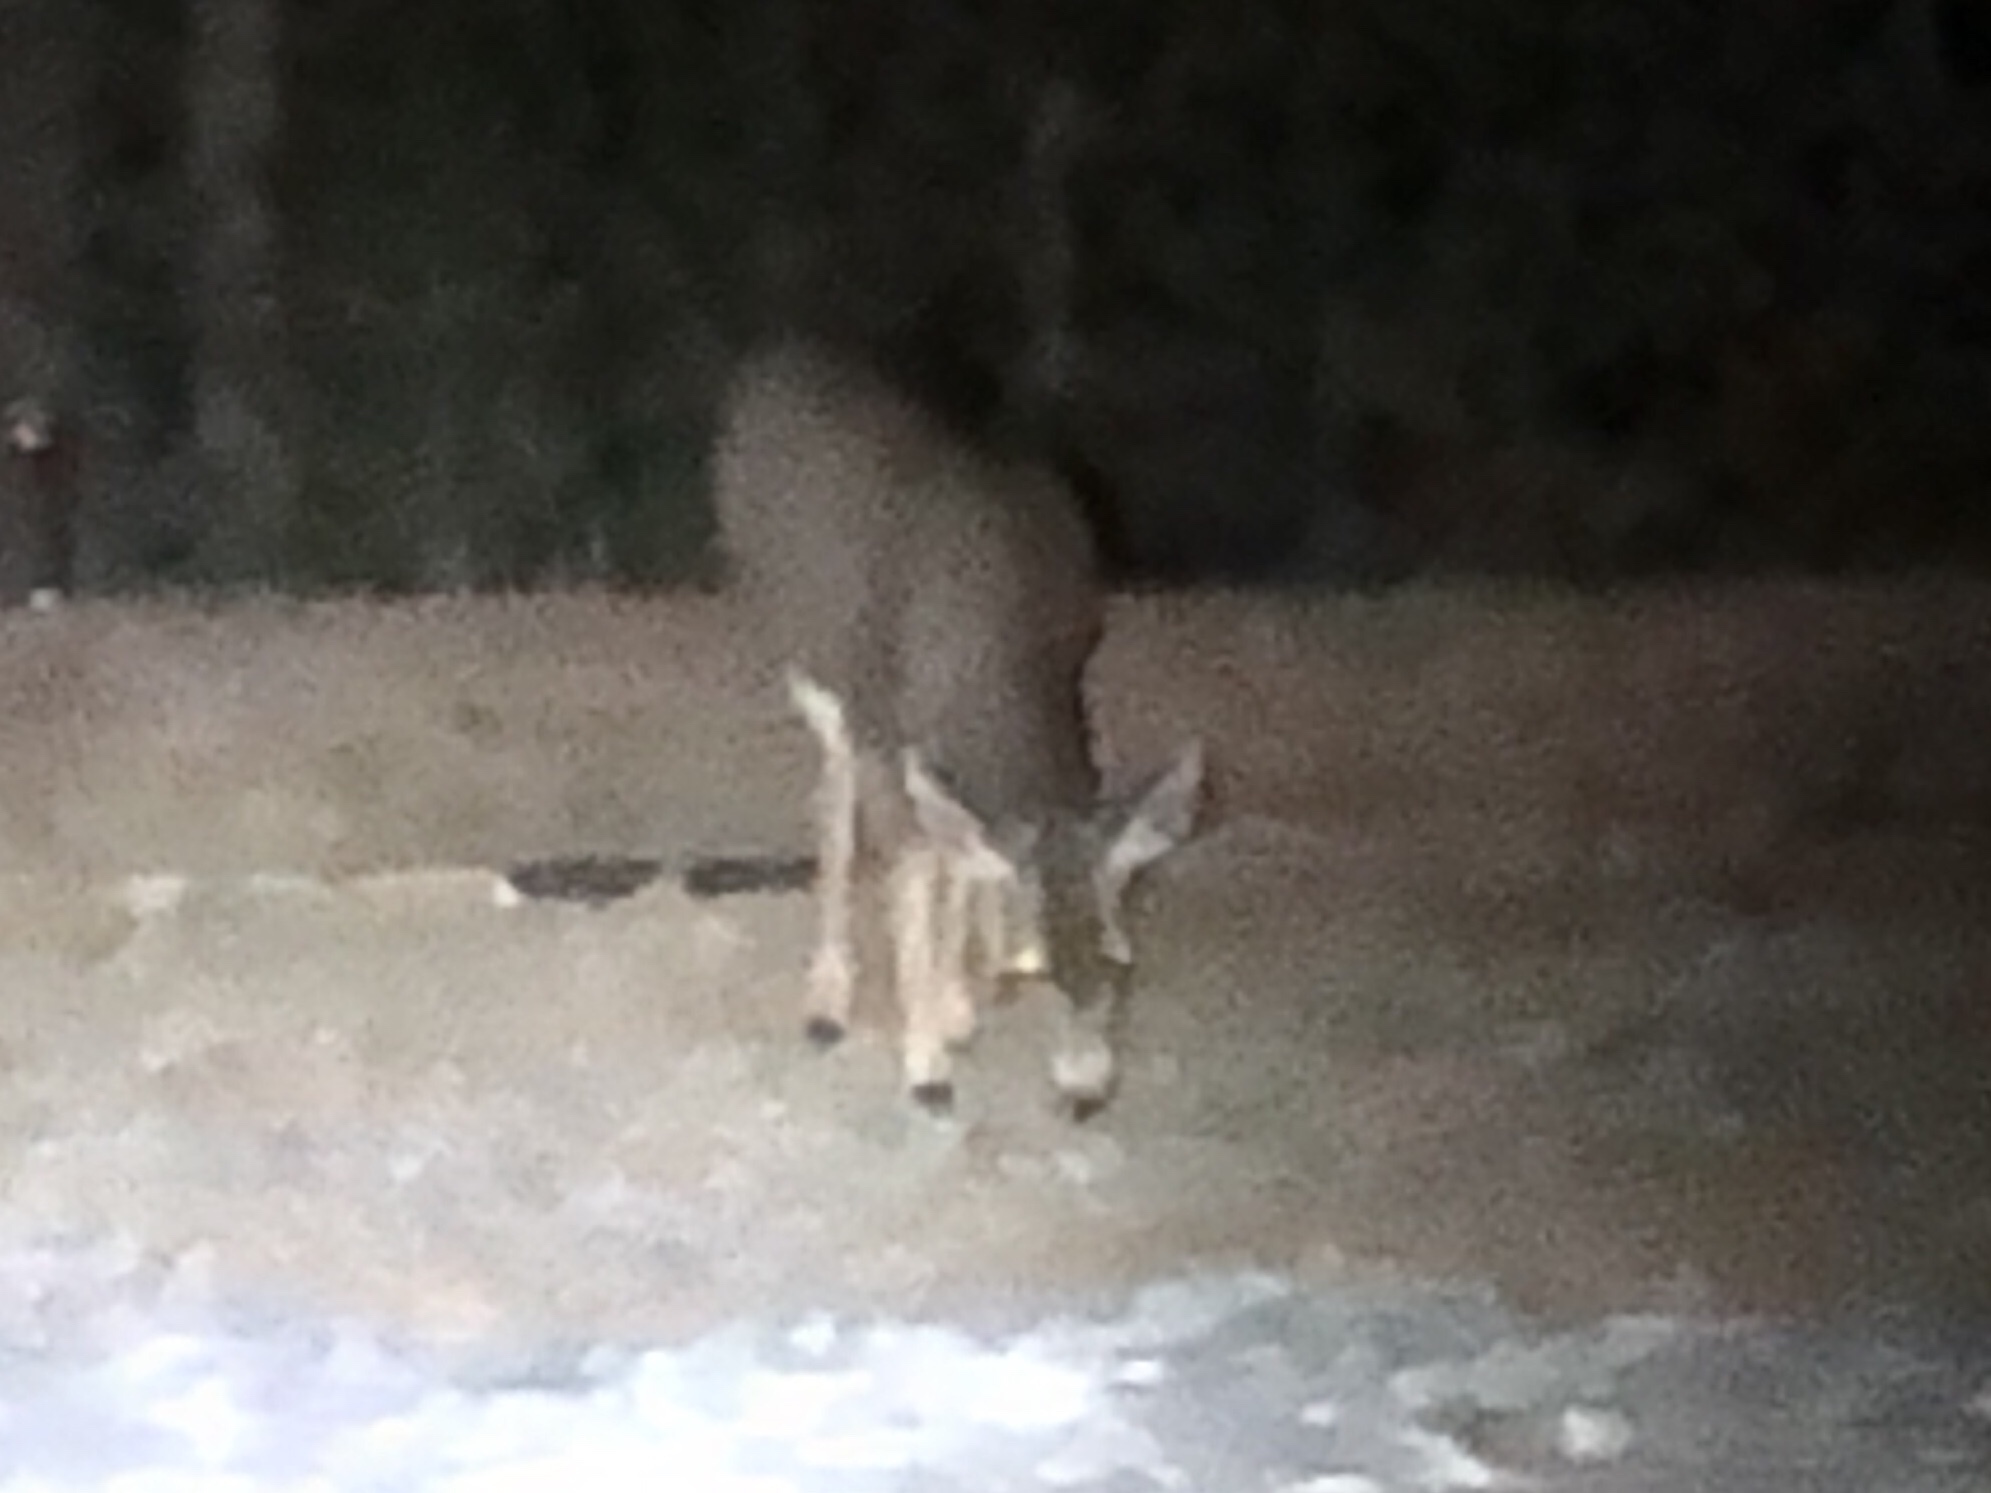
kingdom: Animalia
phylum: Chordata
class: Mammalia
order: Artiodactyla
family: Cervidae
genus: Odocoileus
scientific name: Odocoileus hemionus
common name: Mule deer
